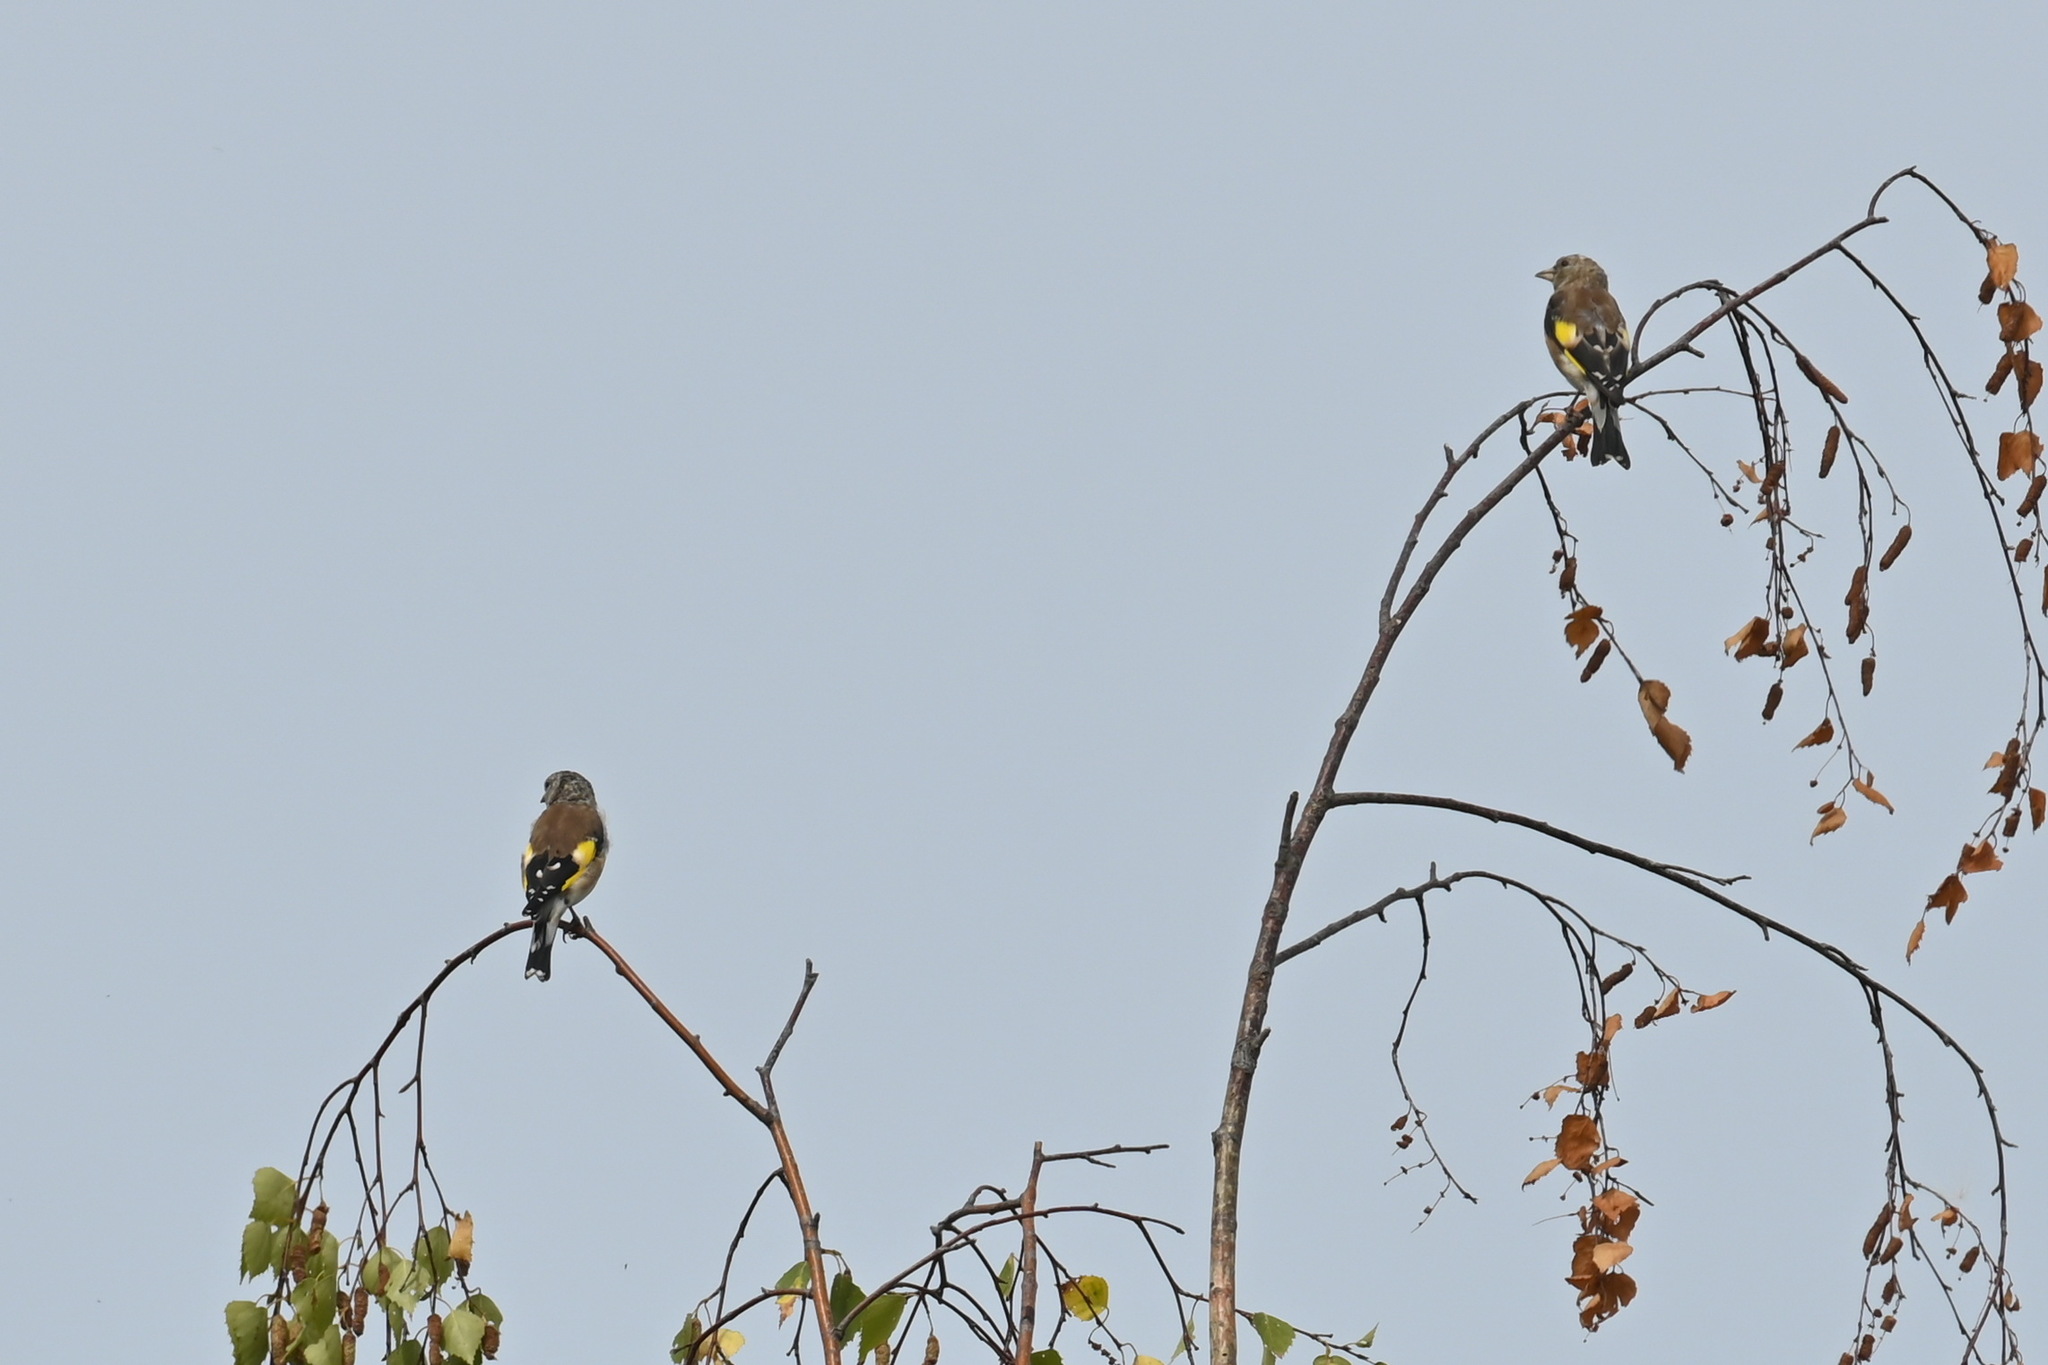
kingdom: Animalia
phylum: Chordata
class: Aves
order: Passeriformes
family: Fringillidae
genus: Carduelis
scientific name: Carduelis carduelis
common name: European goldfinch
